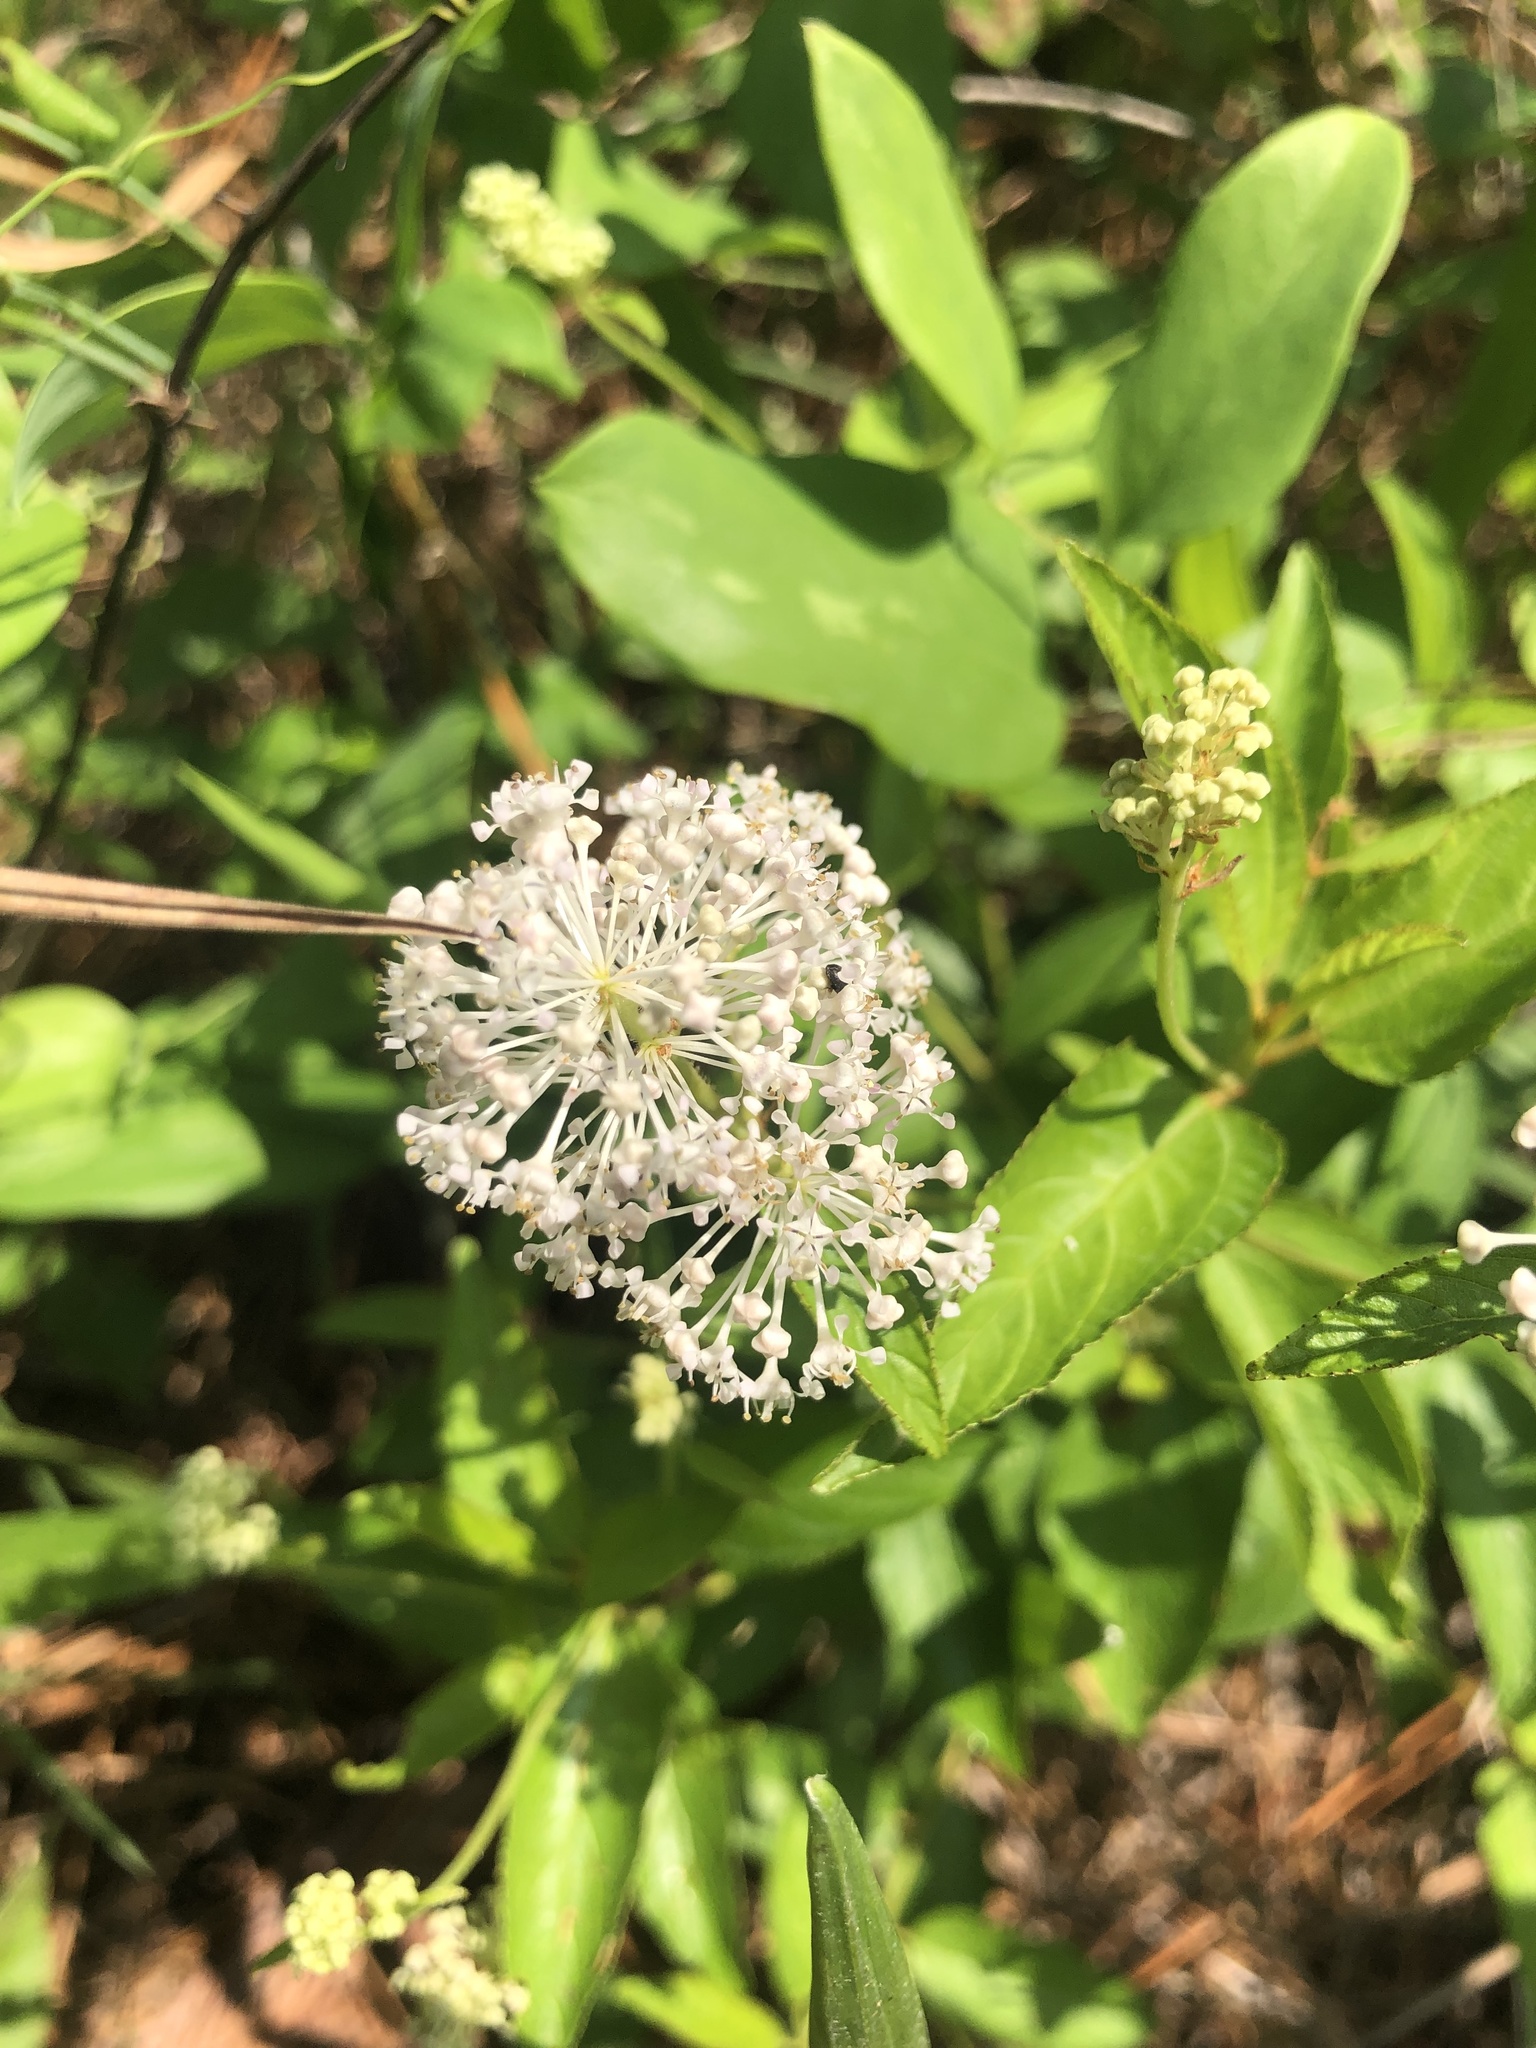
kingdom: Plantae
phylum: Tracheophyta
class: Magnoliopsida
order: Rosales
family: Rhamnaceae
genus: Ceanothus
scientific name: Ceanothus americanus
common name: Redroot
